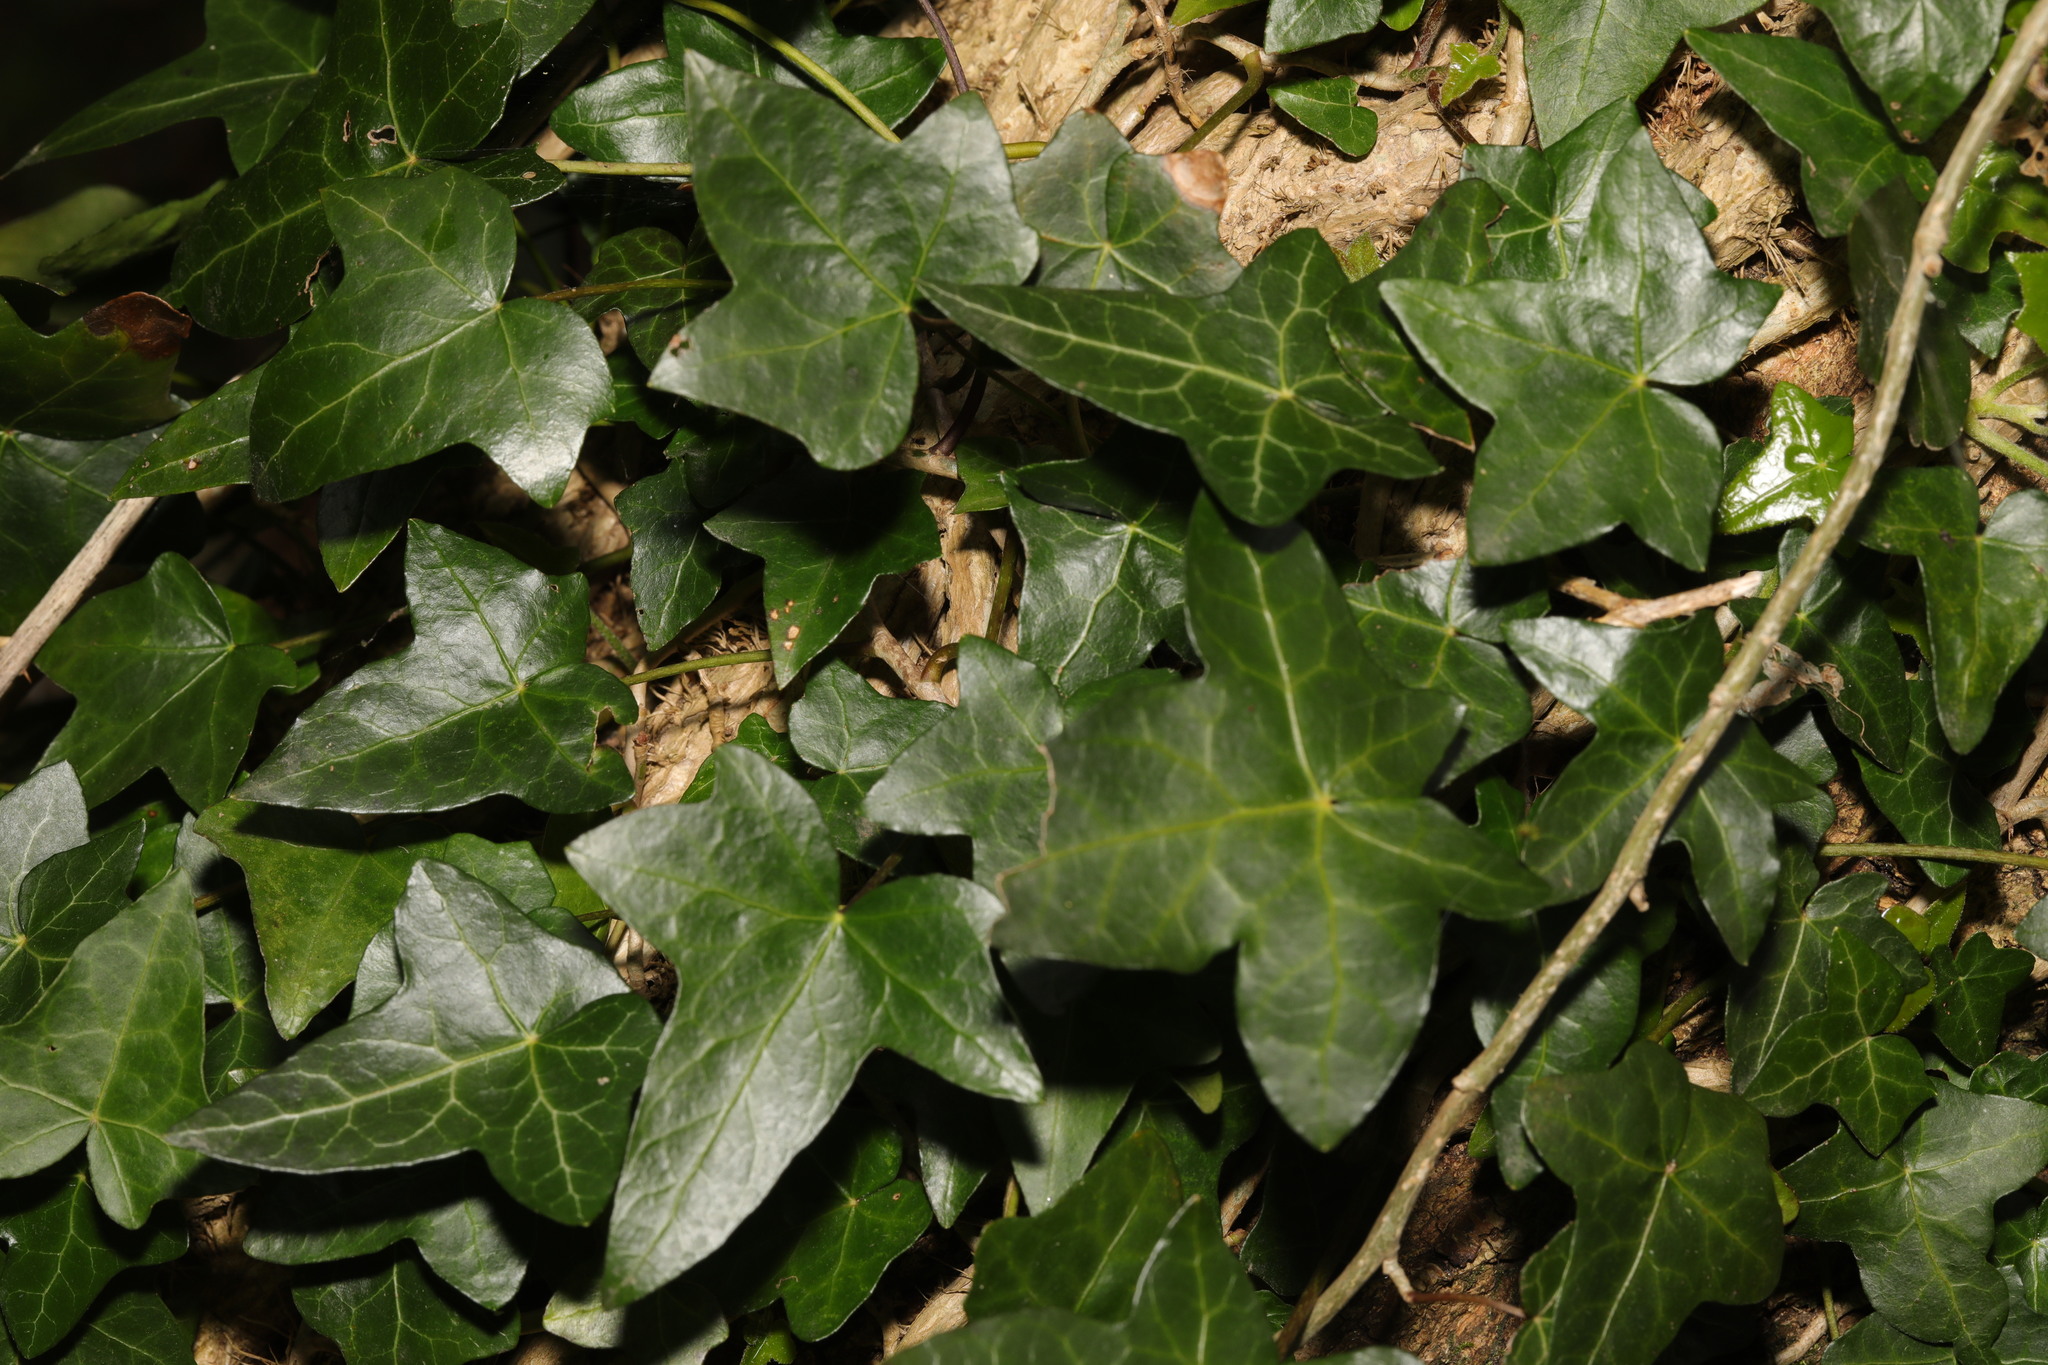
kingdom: Plantae
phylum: Tracheophyta
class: Magnoliopsida
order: Apiales
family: Araliaceae
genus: Hedera
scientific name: Hedera helix
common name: Ivy
